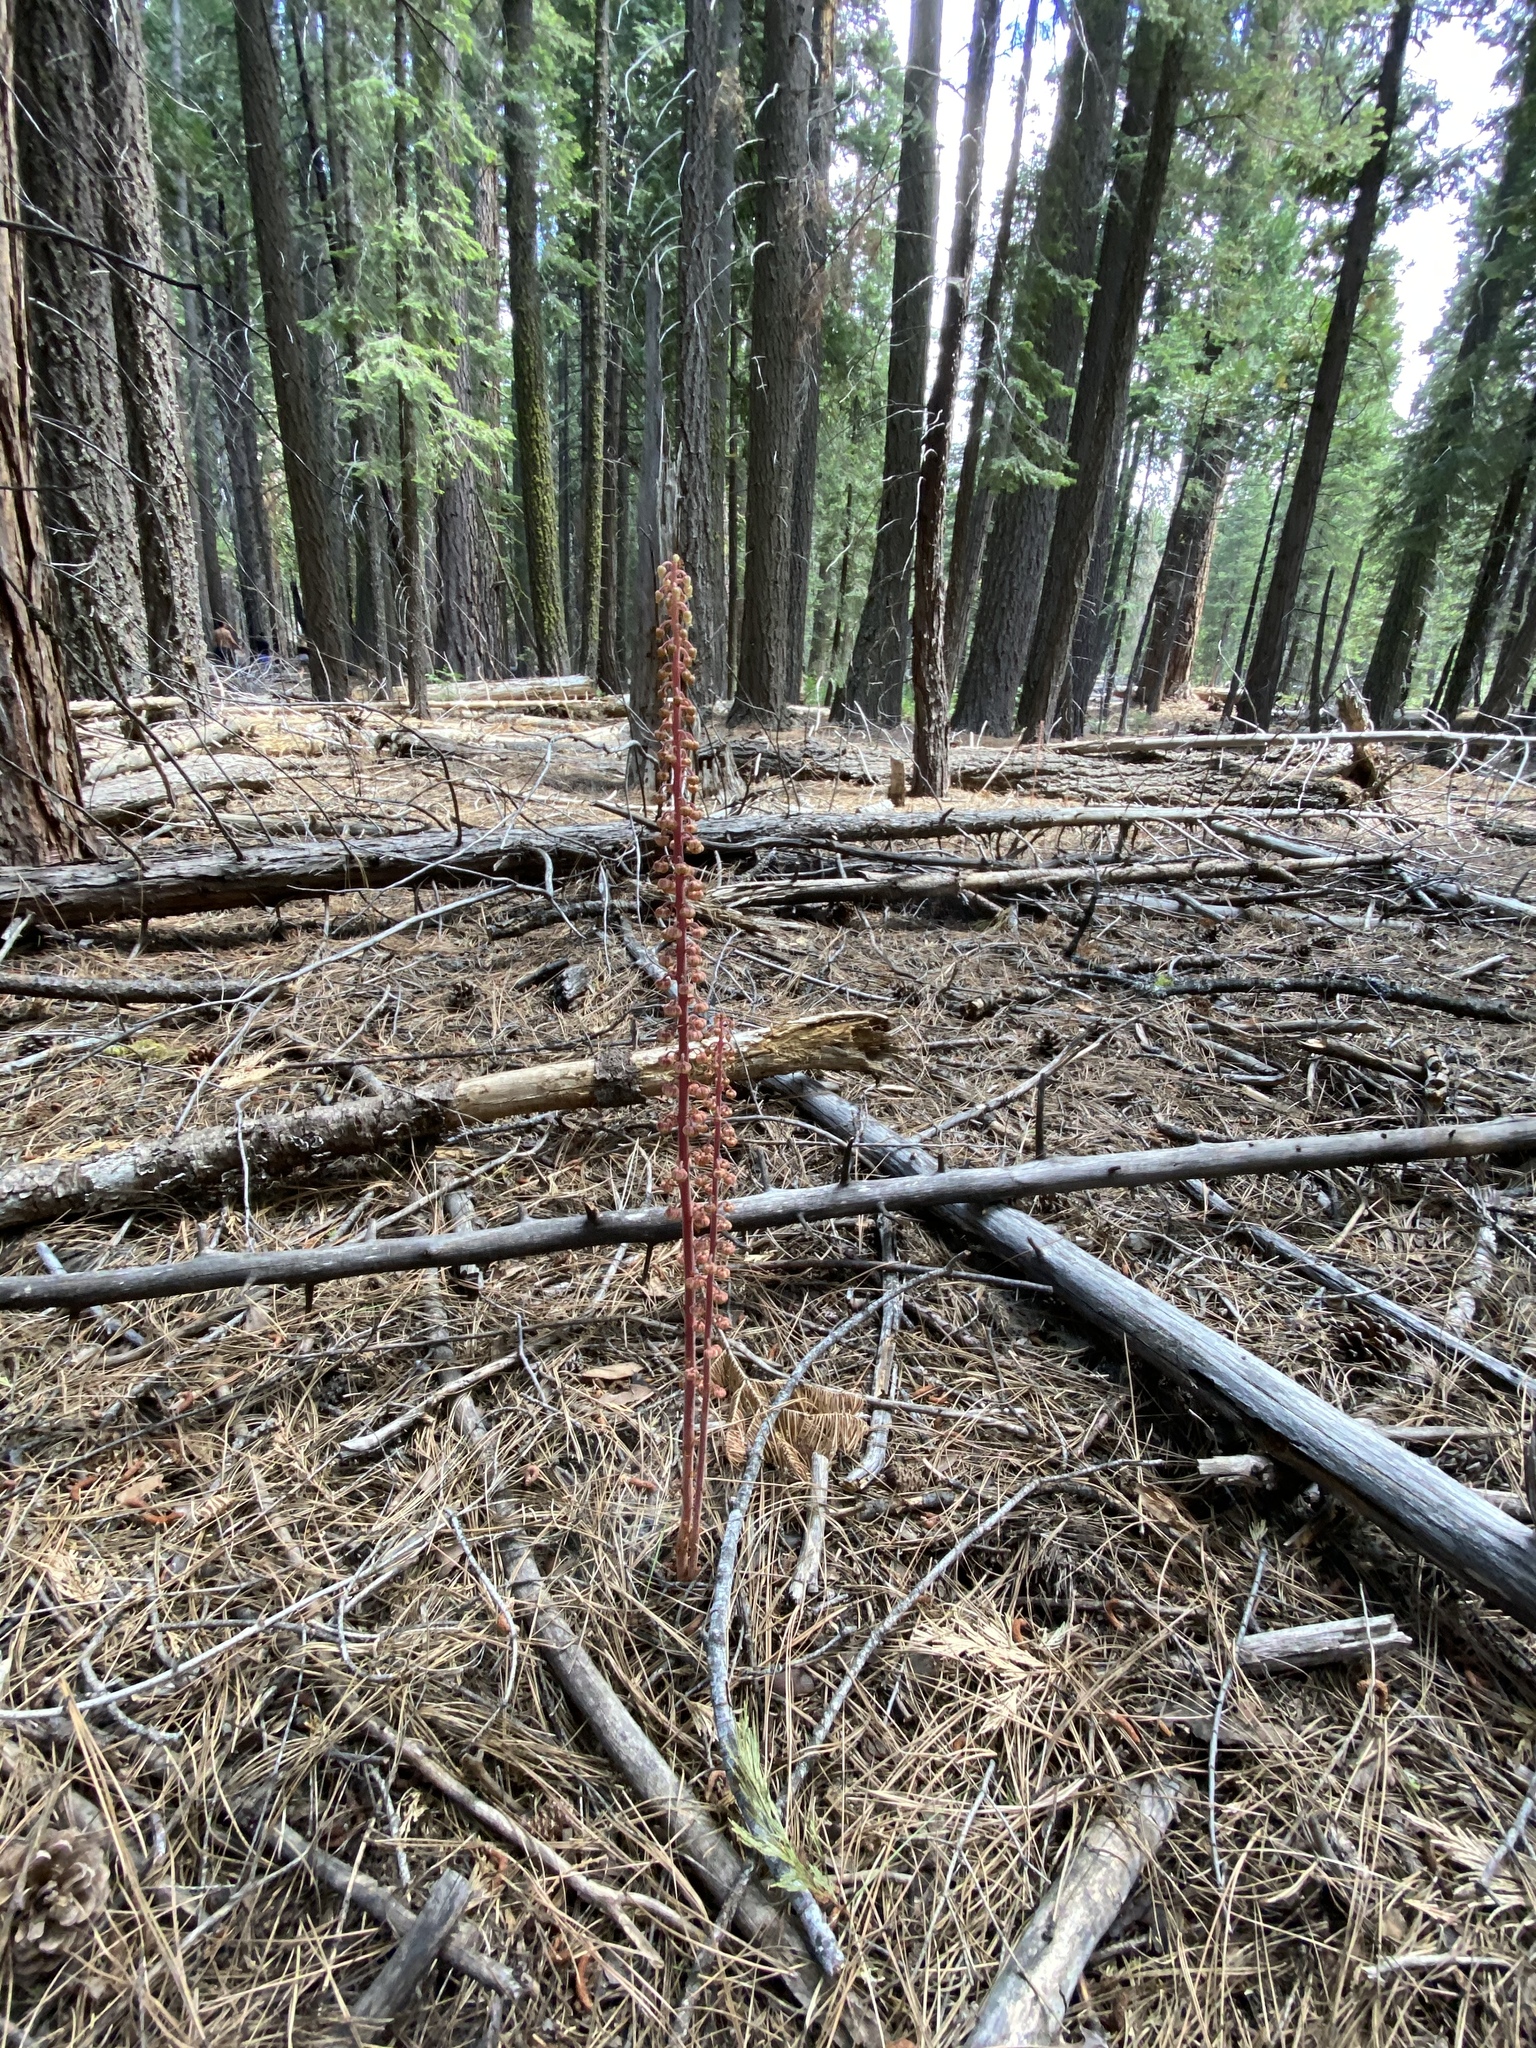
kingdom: Plantae
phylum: Tracheophyta
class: Magnoliopsida
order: Ericales
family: Ericaceae
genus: Pterospora
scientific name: Pterospora andromedea
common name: Giant bird's-nest
